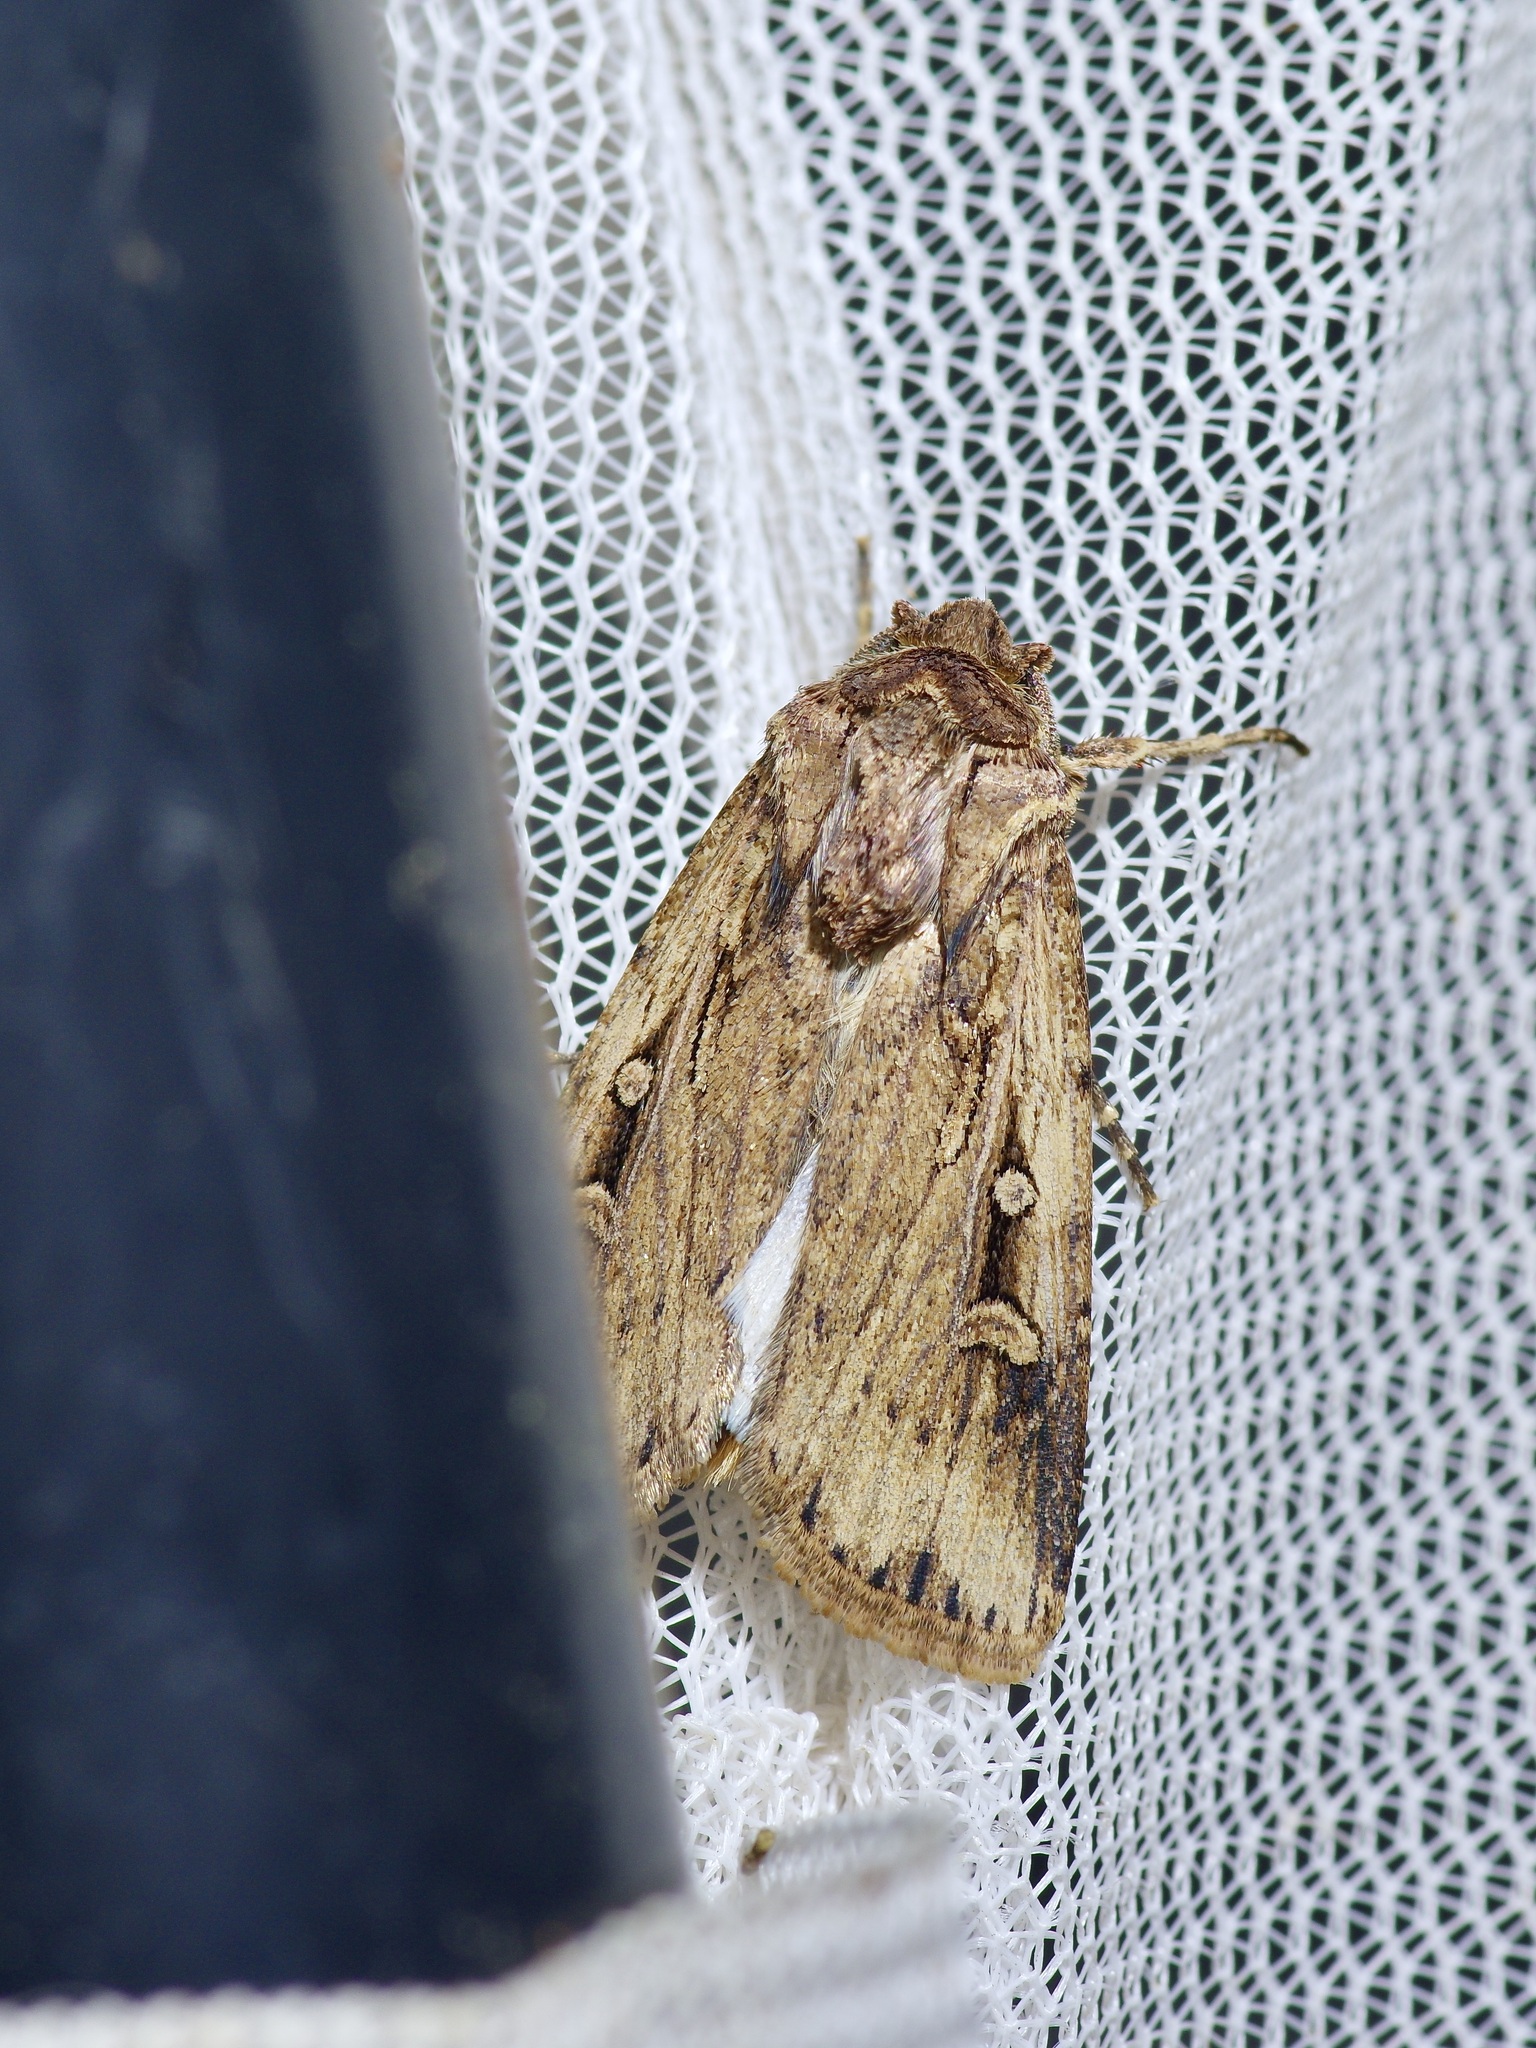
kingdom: Animalia
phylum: Arthropoda
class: Insecta
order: Lepidoptera
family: Noctuidae
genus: Feltia
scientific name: Feltia subterranea
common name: Granulate cutworm
